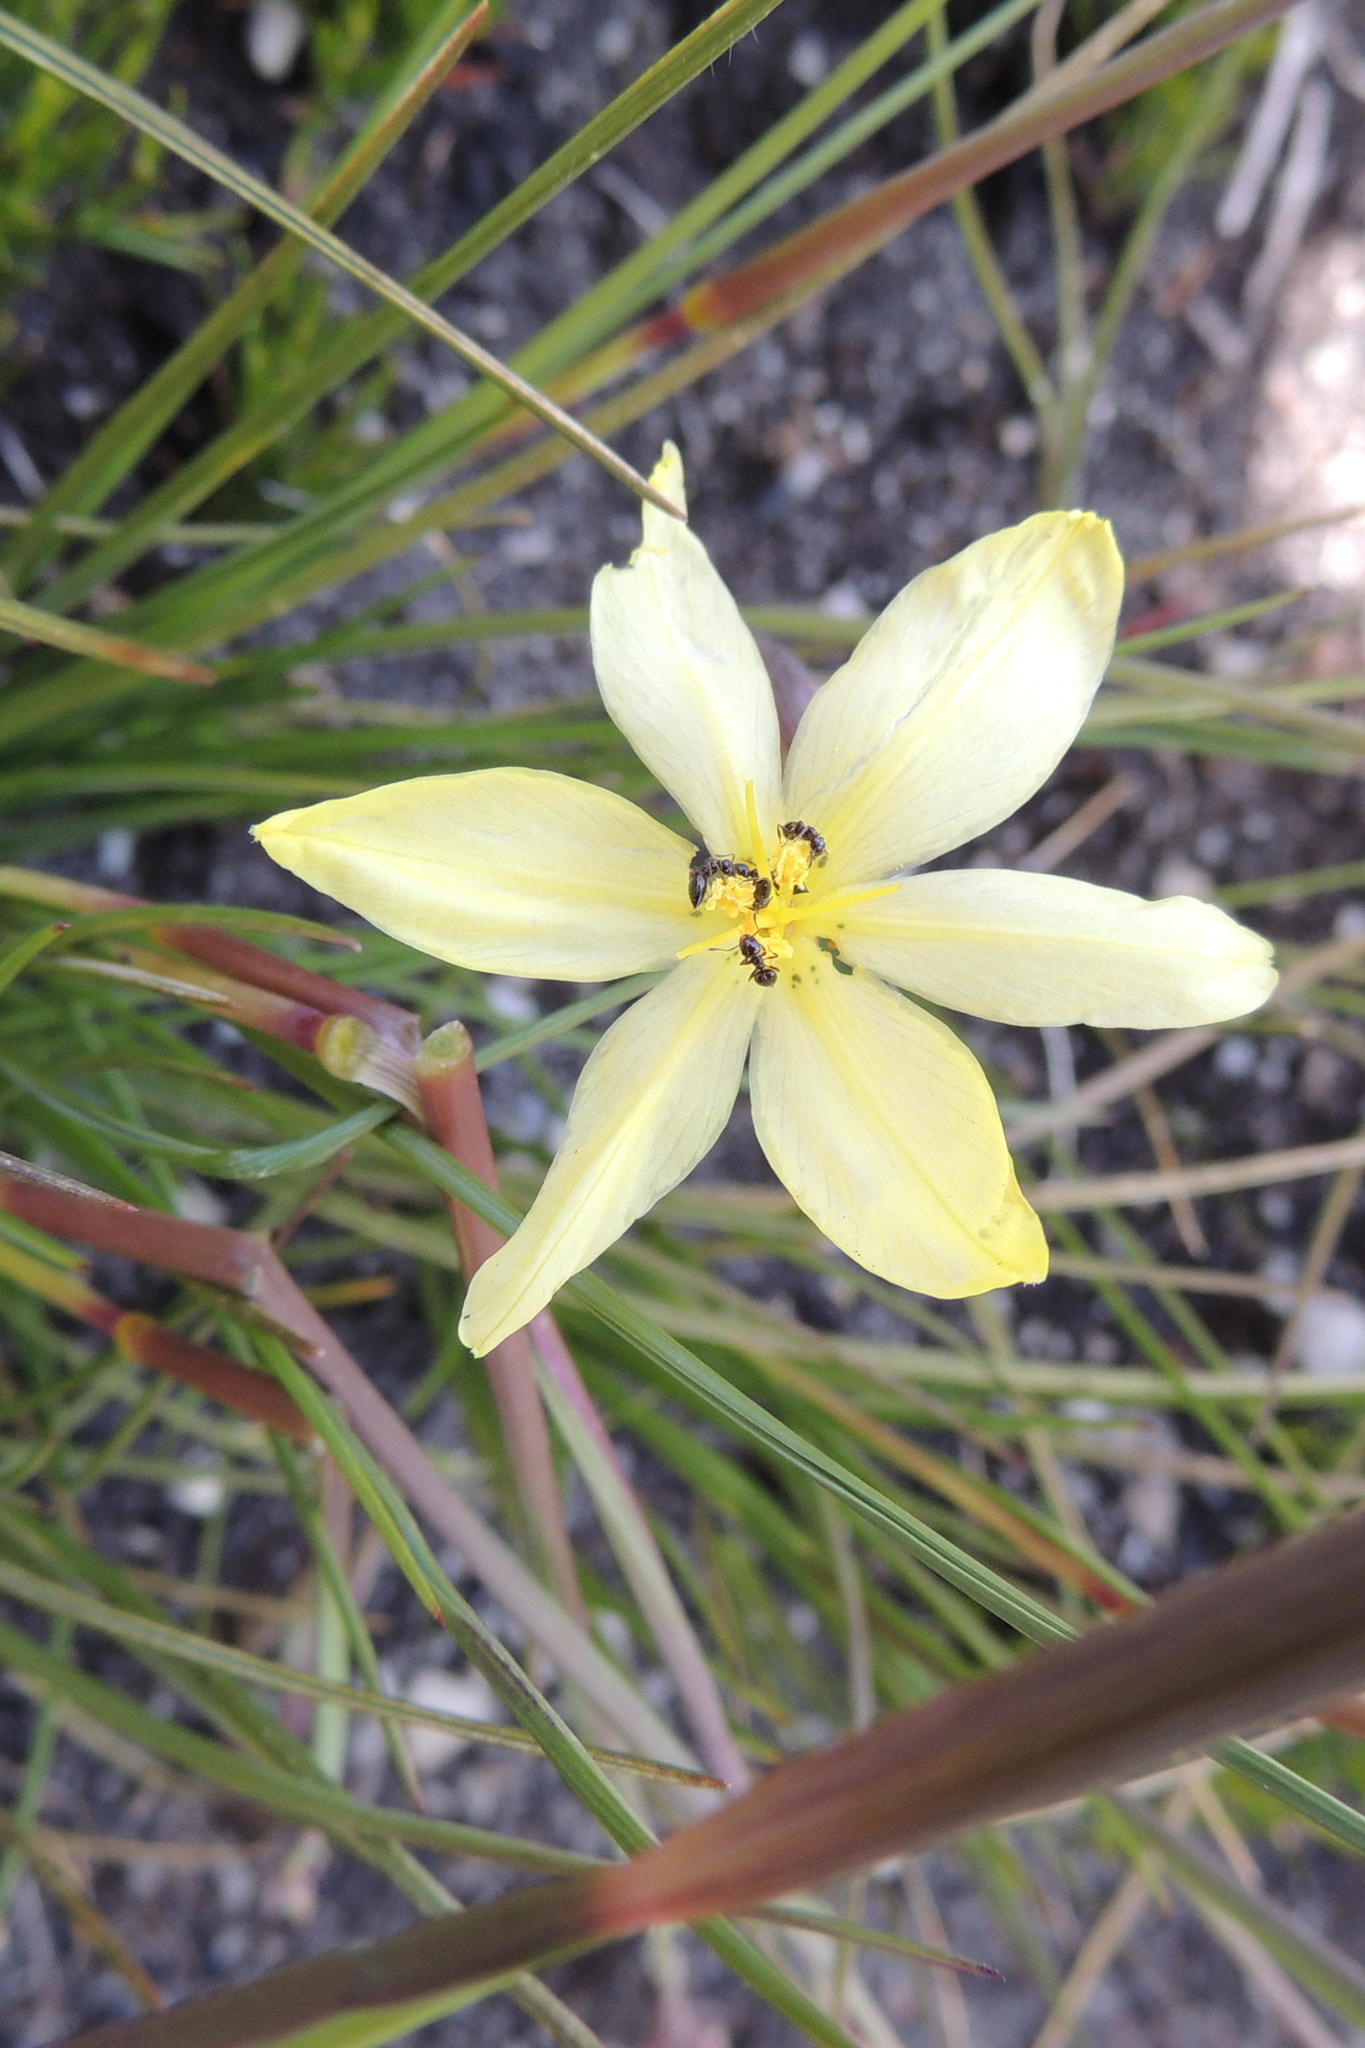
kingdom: Plantae
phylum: Tracheophyta
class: Liliopsida
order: Asparagales
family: Iridaceae
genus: Bobartia
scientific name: Bobartia parva
